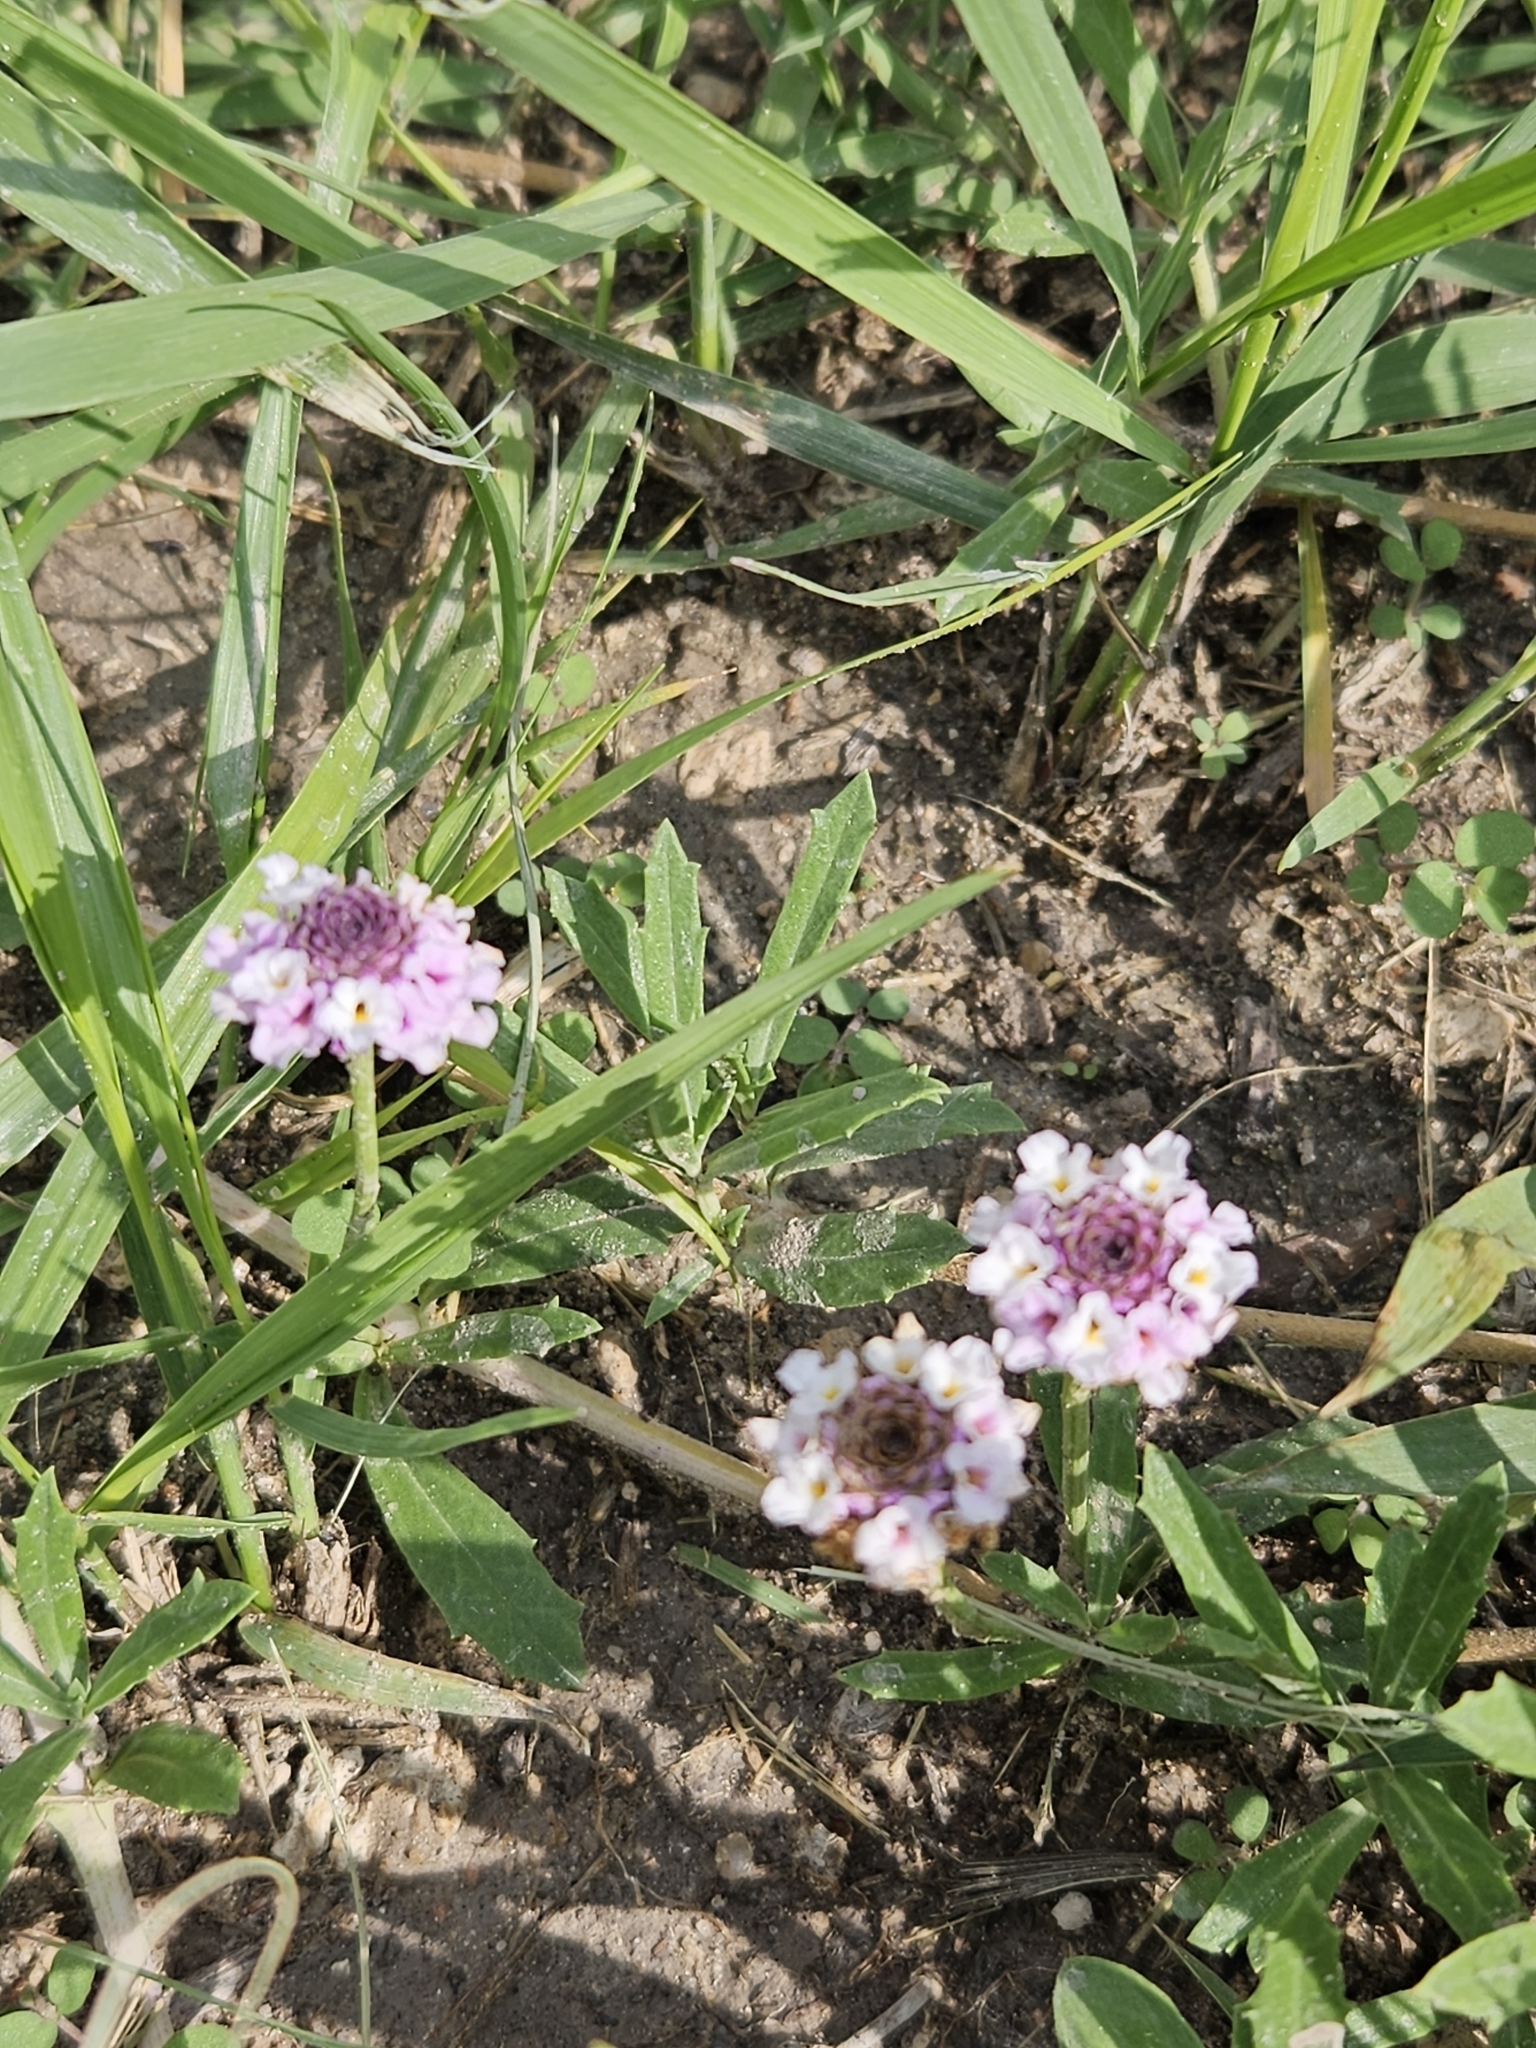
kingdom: Plantae
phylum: Tracheophyta
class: Magnoliopsida
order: Lamiales
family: Verbenaceae
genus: Phyla
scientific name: Phyla cuneifolia
